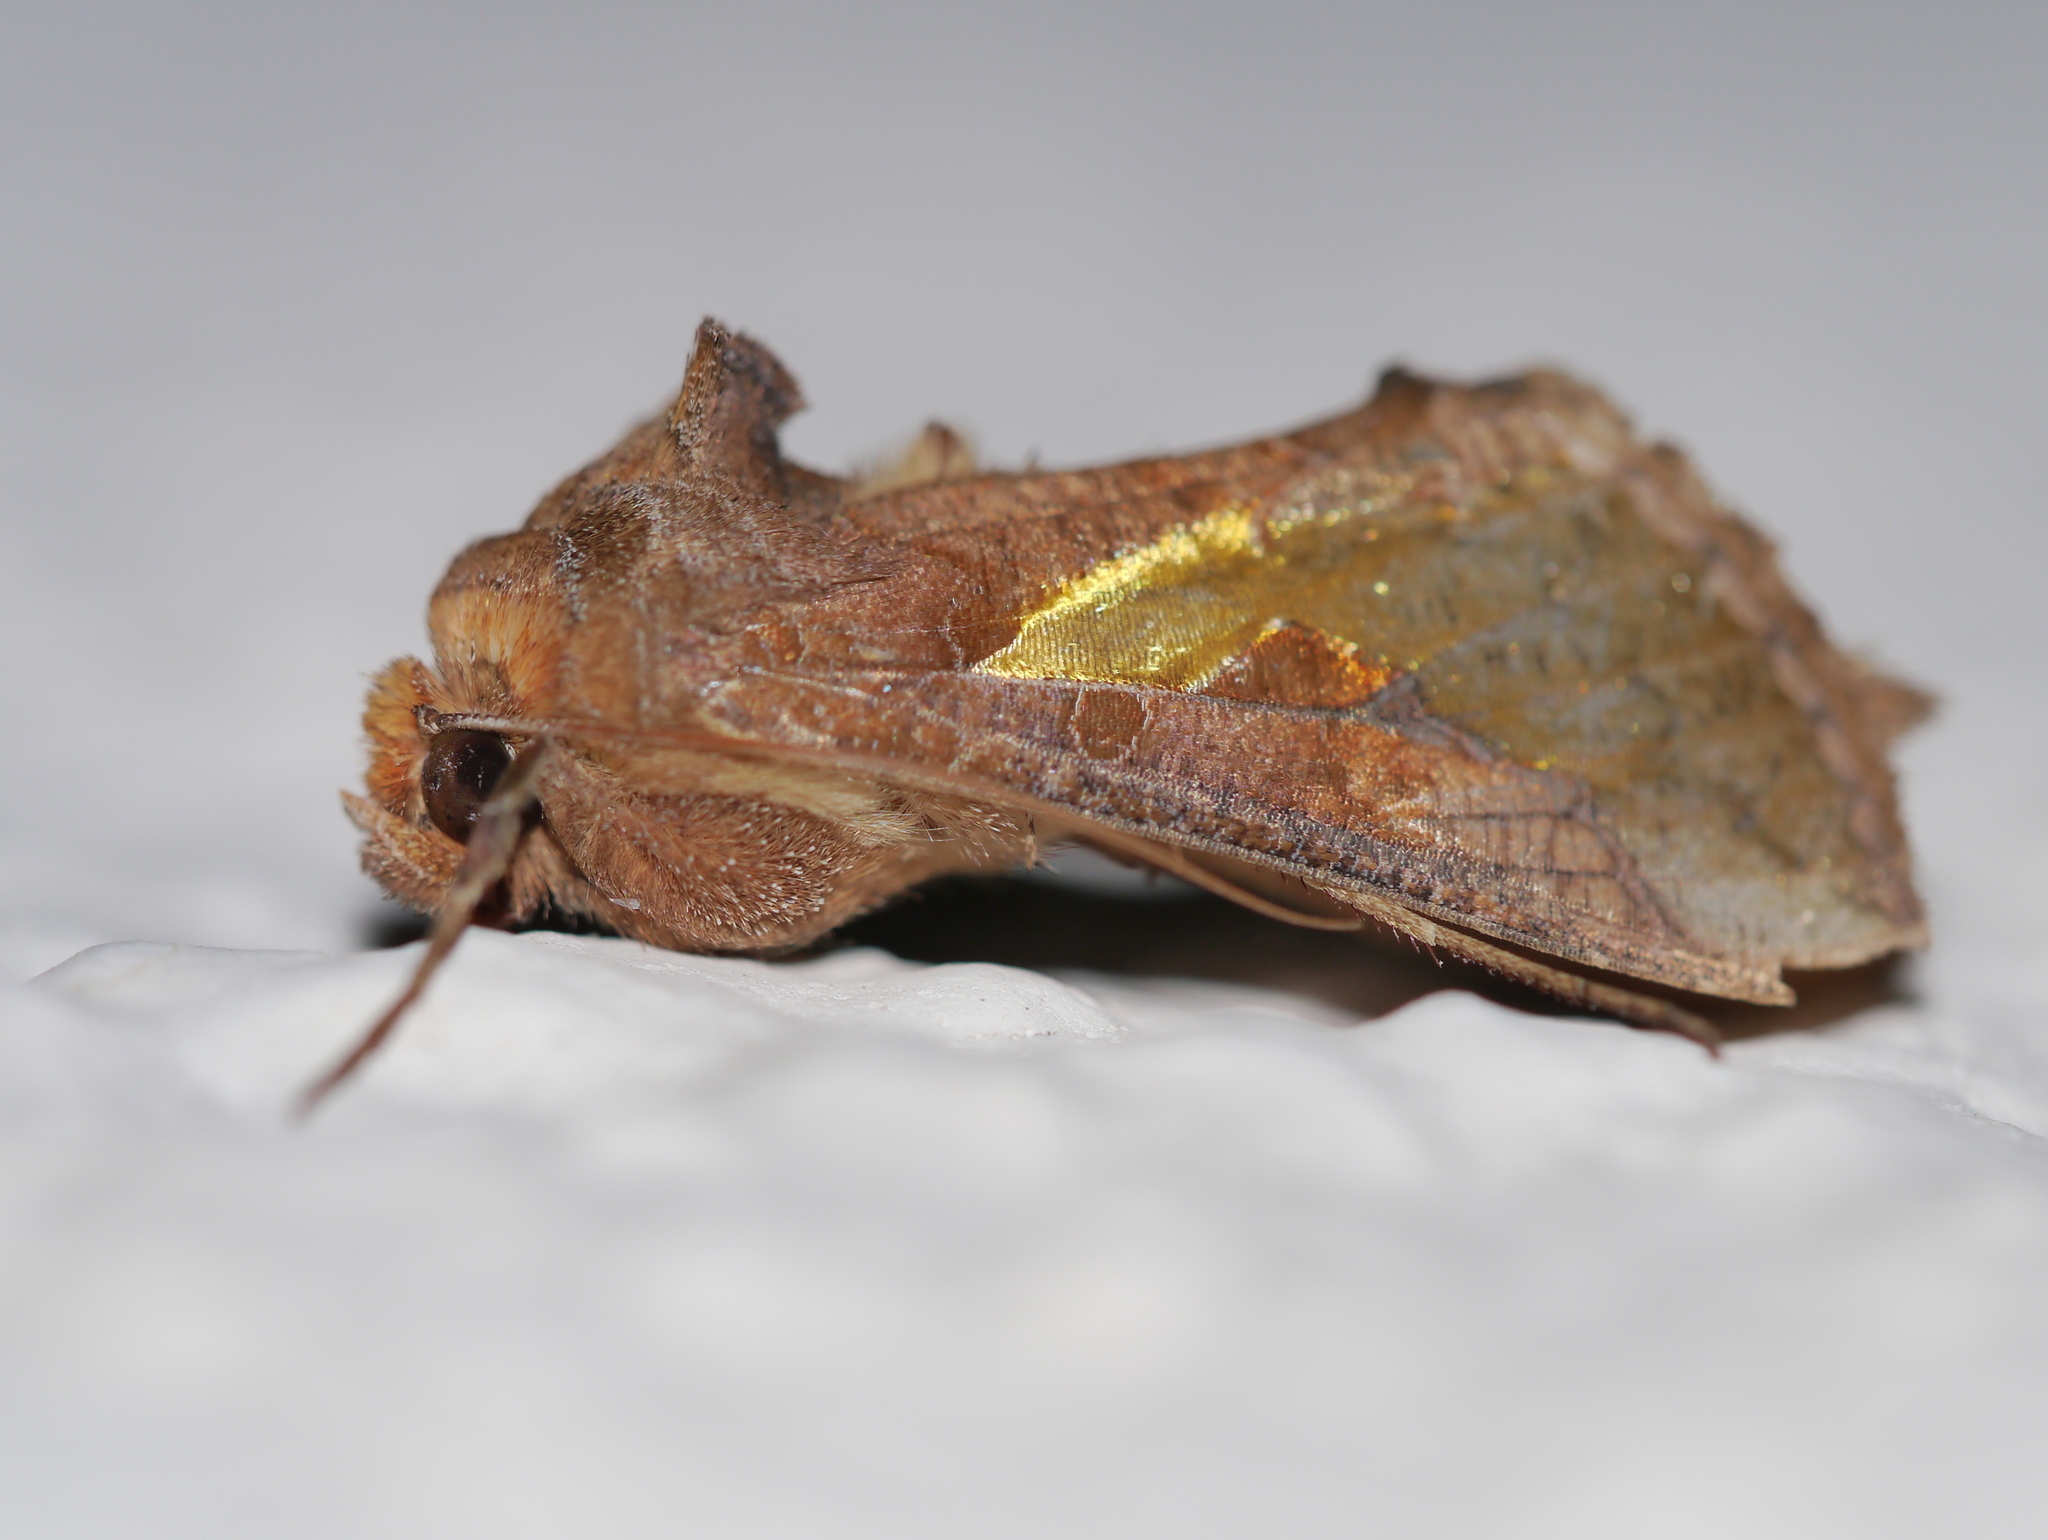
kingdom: Animalia
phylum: Arthropoda
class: Insecta
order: Lepidoptera
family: Noctuidae
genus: Thysanoplusia
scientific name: Thysanoplusia orichalcea
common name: Slender burnished brass, golden plusia
